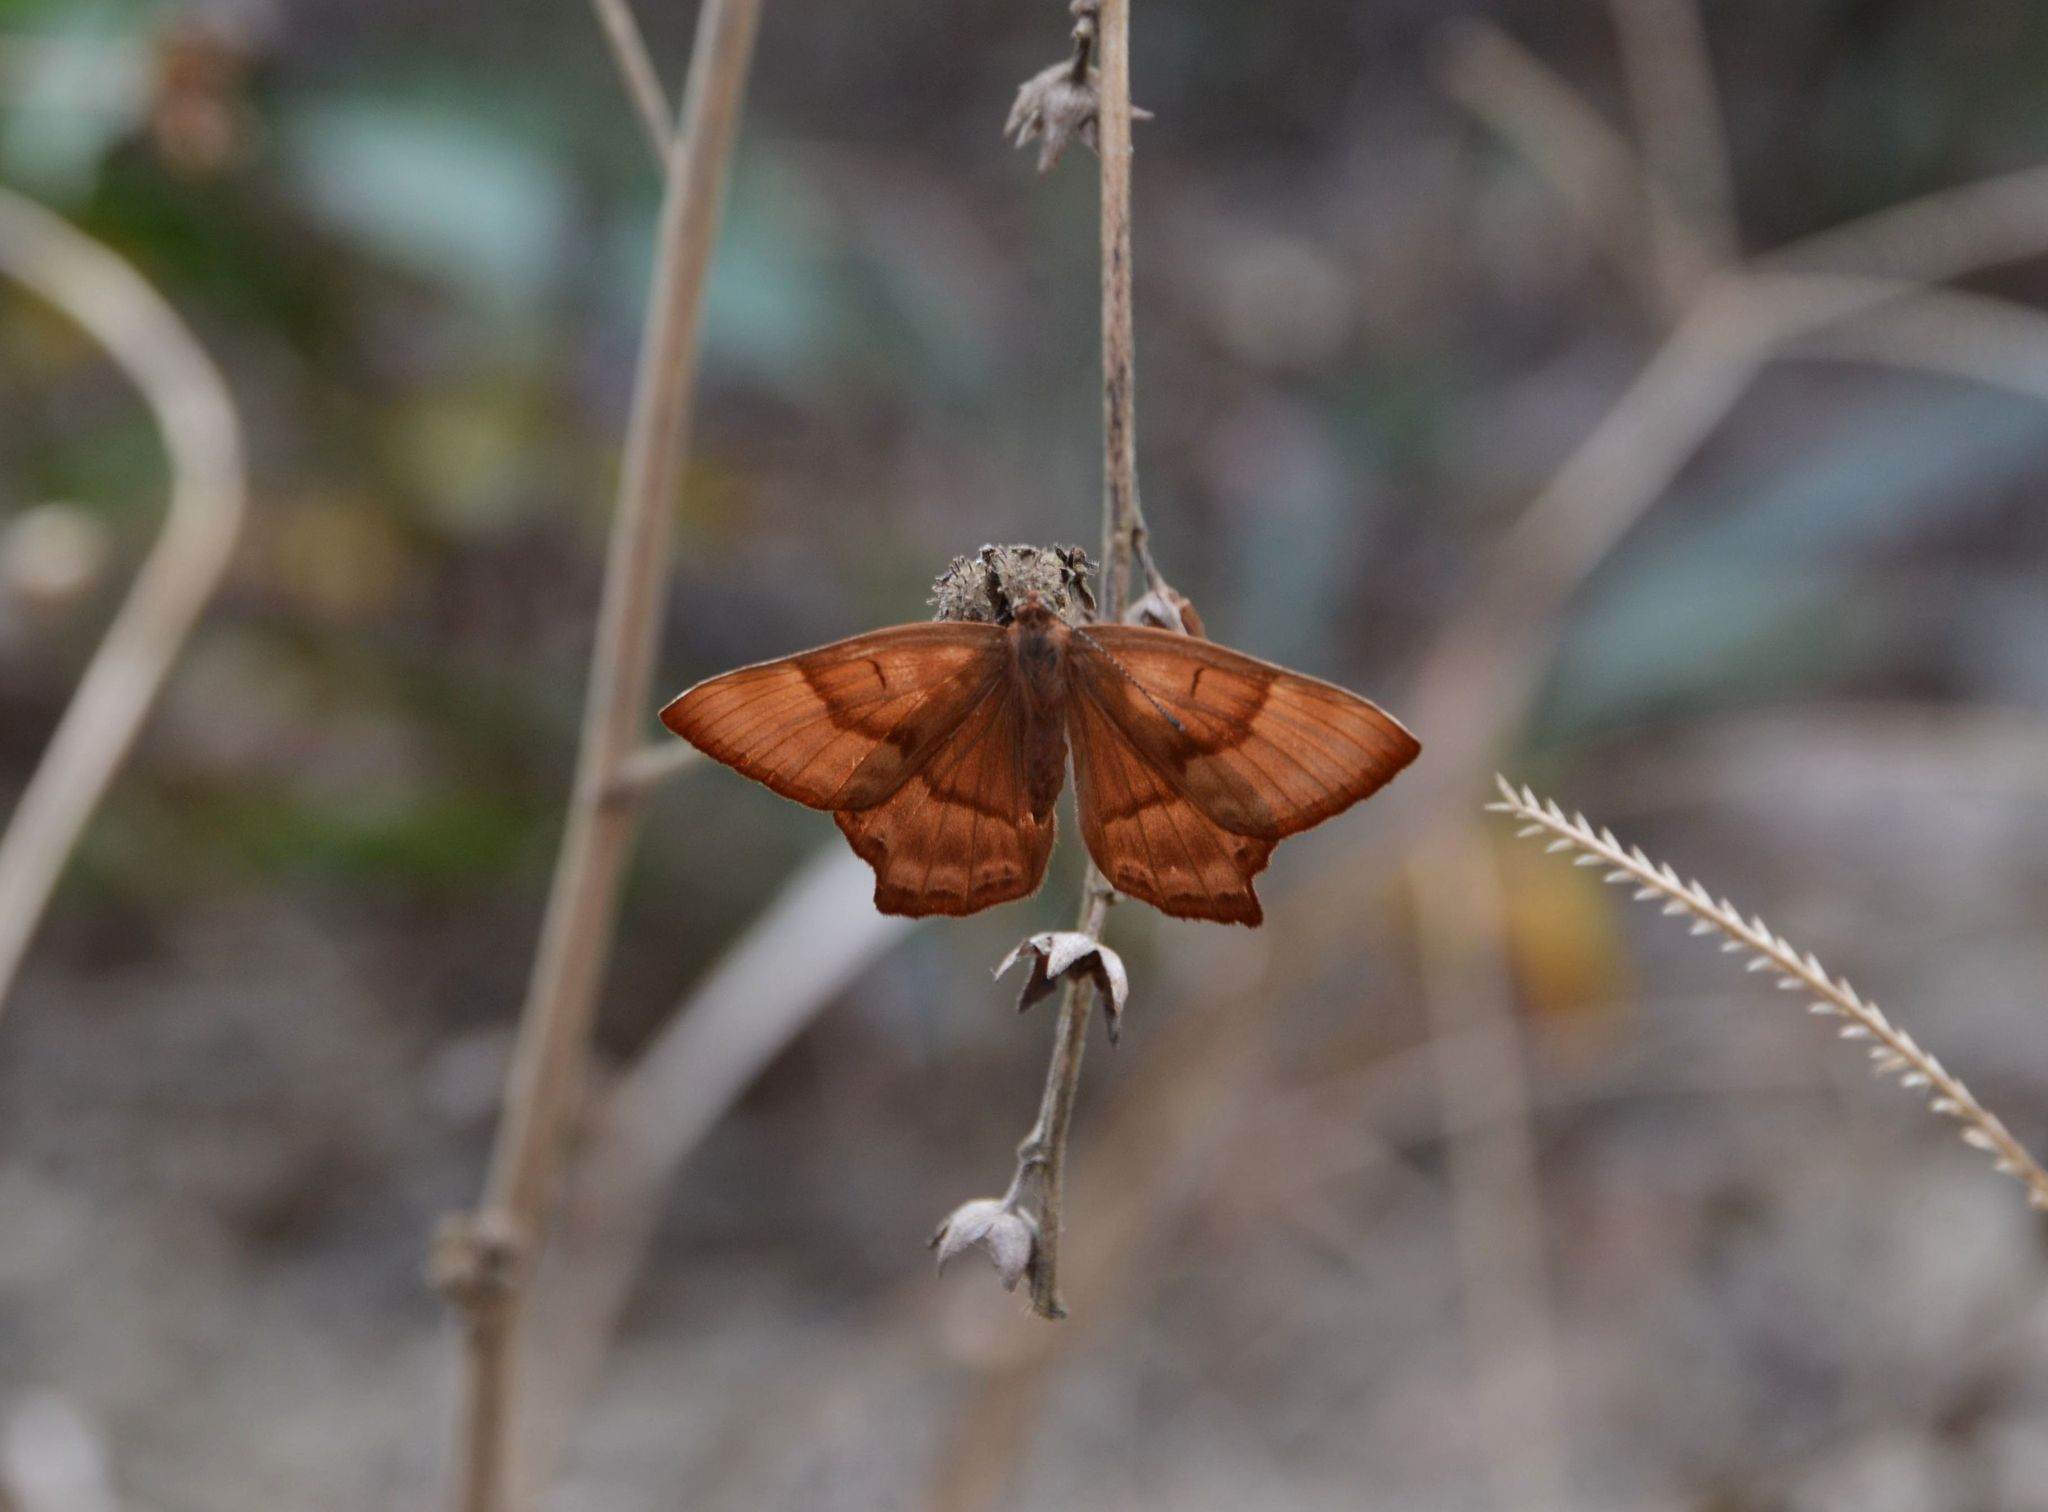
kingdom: Animalia
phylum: Arthropoda
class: Insecta
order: Lepidoptera
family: Lycaenidae
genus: Abisara
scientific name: Abisara echeria
